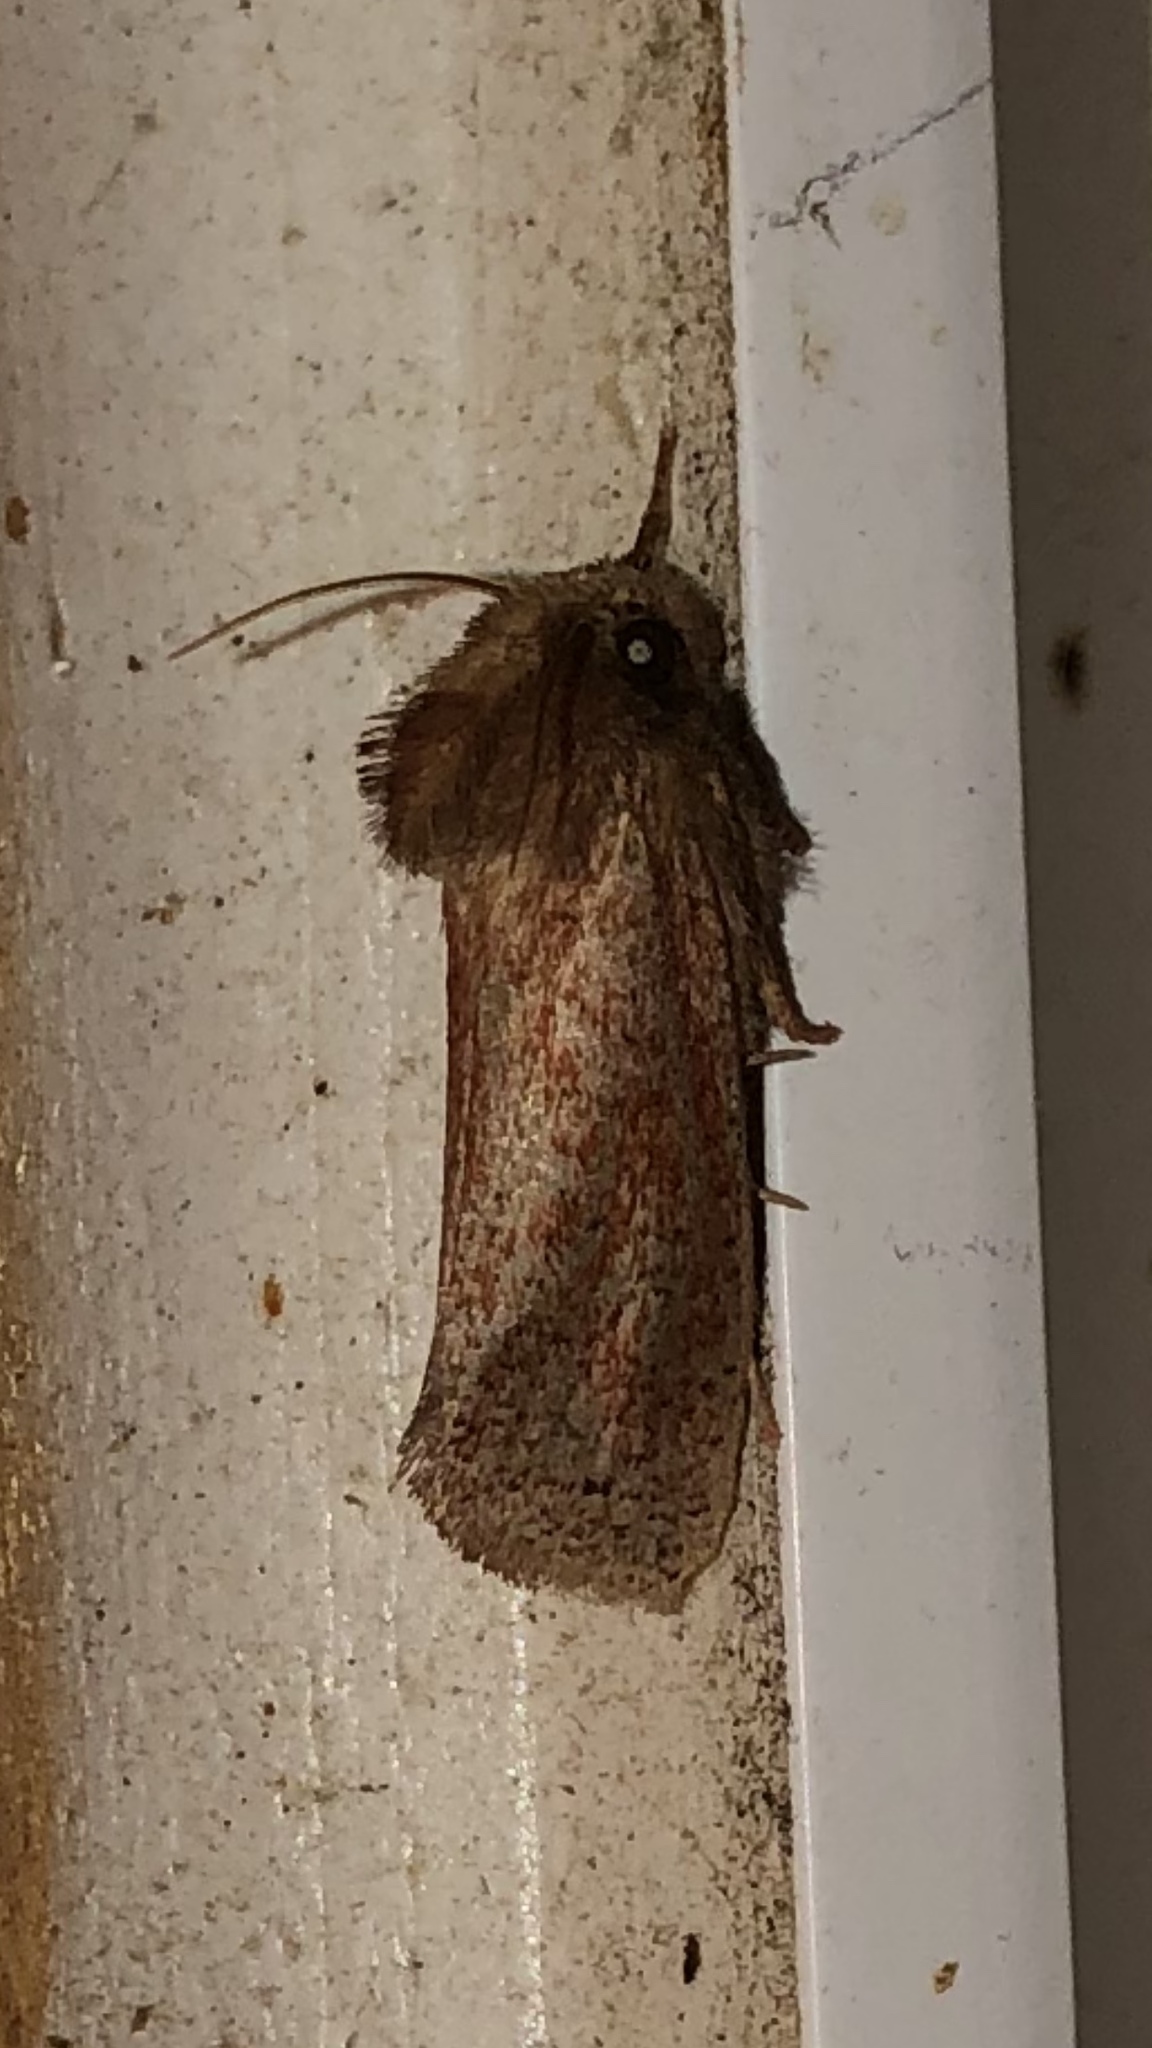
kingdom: Animalia
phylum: Arthropoda
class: Insecta
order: Lepidoptera
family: Tineidae
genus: Acrolophus
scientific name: Acrolophus plumifrontella
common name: Eastern grass tubeworm moth
